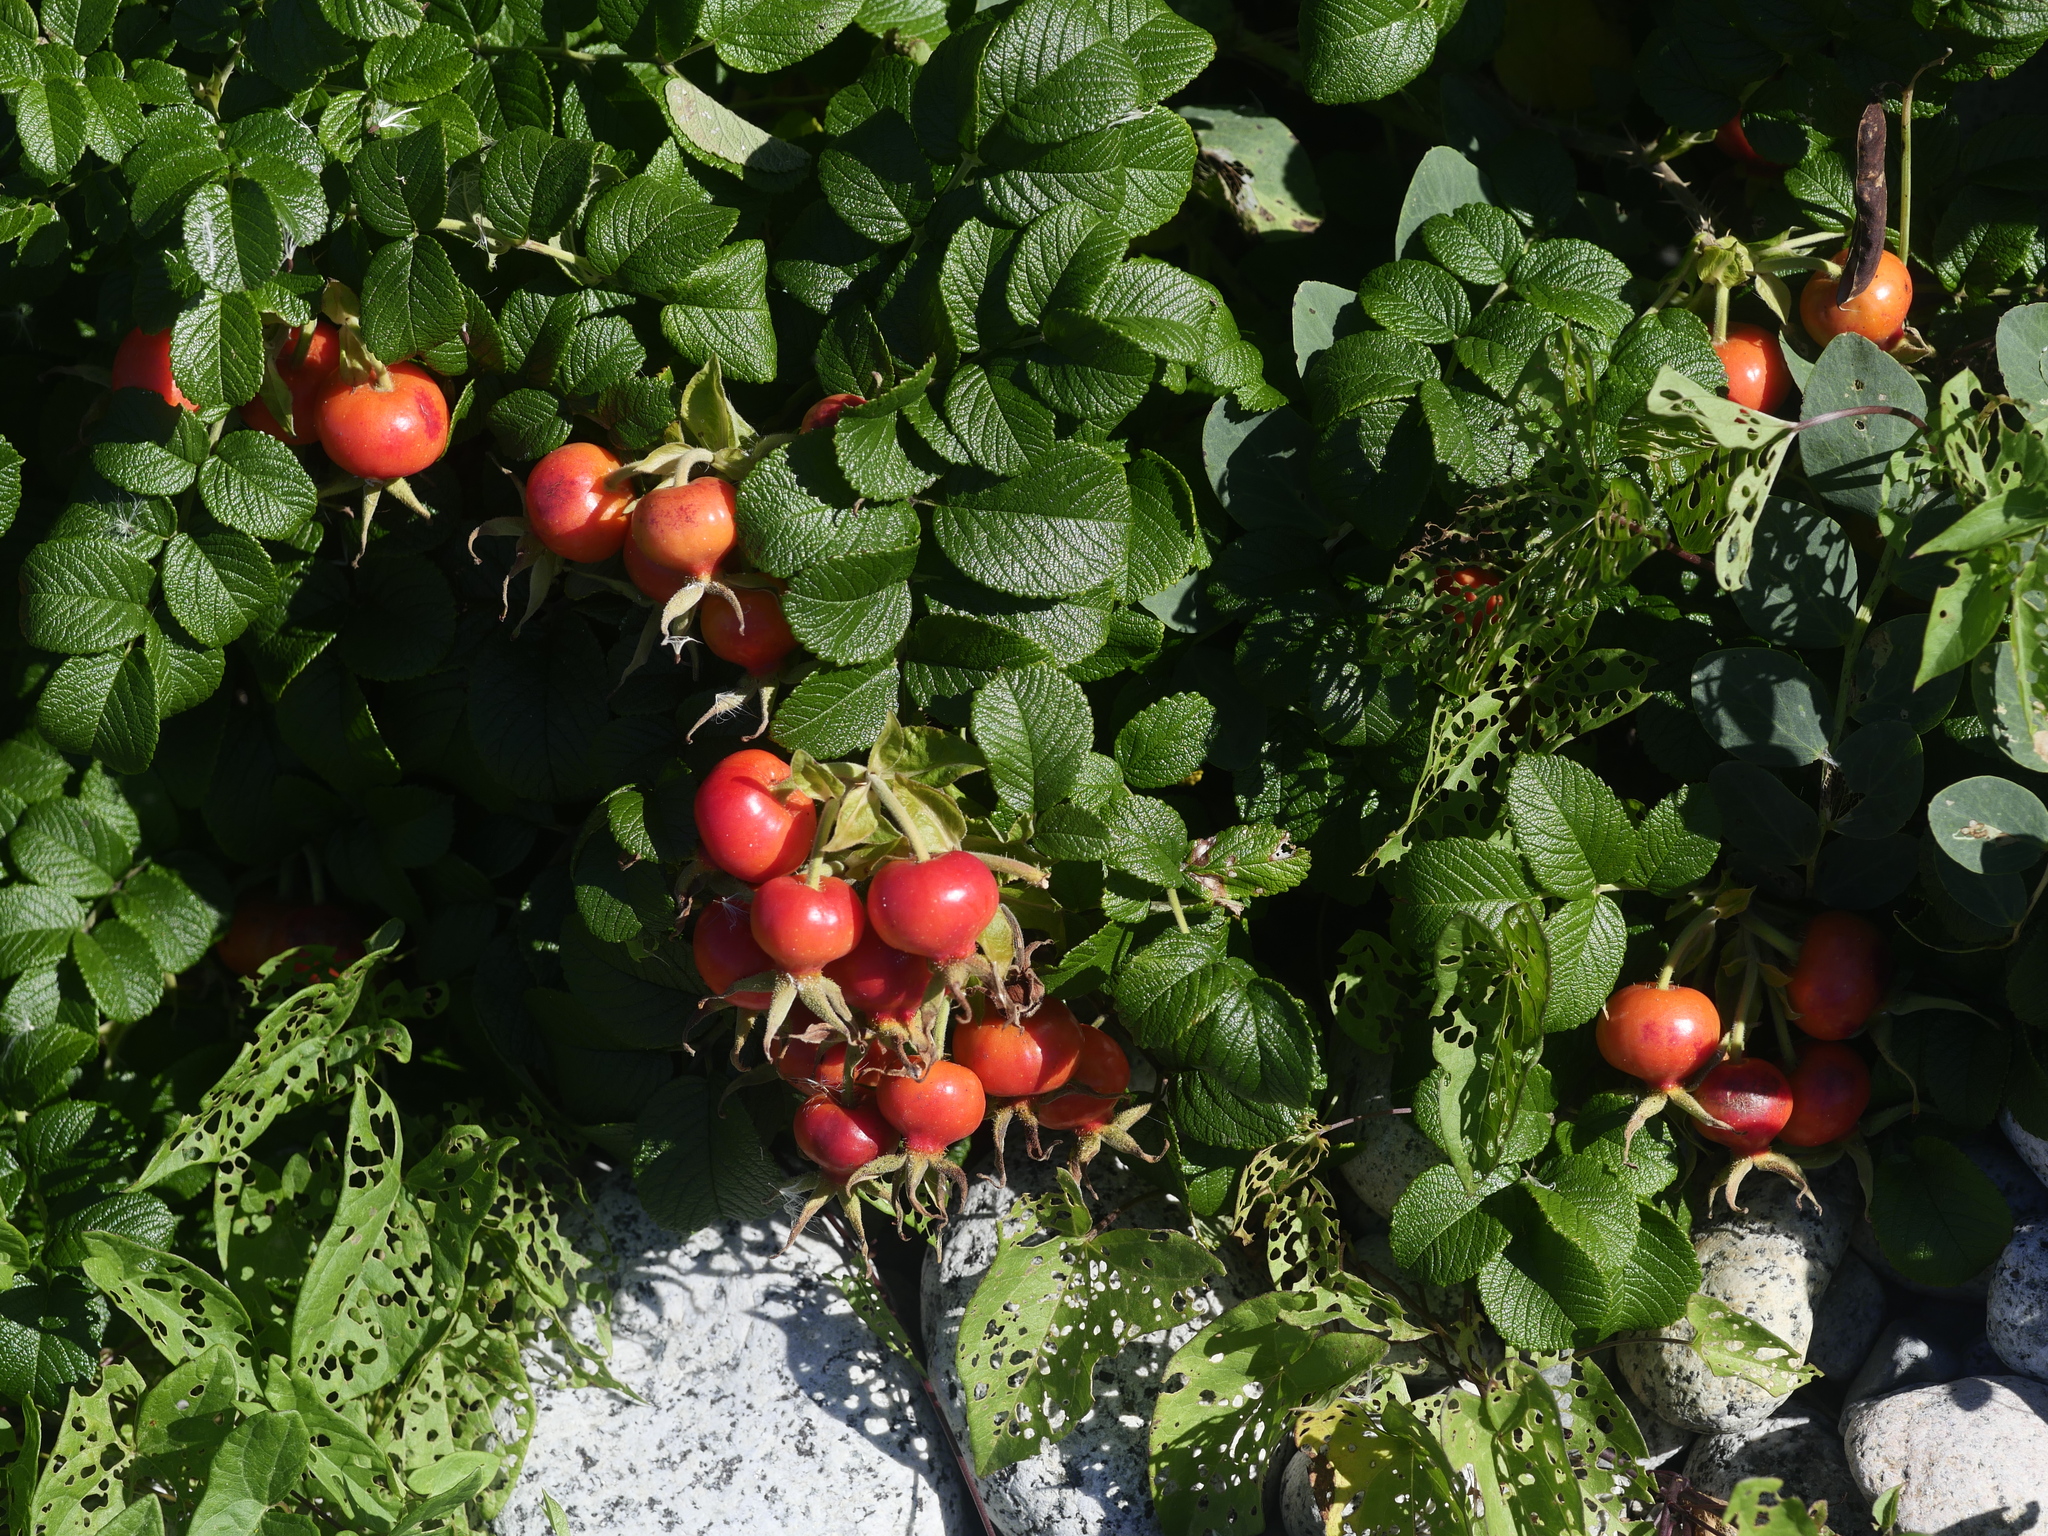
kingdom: Plantae
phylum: Tracheophyta
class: Magnoliopsida
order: Rosales
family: Rosaceae
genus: Rosa
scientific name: Rosa rugosa
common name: Japanese rose
